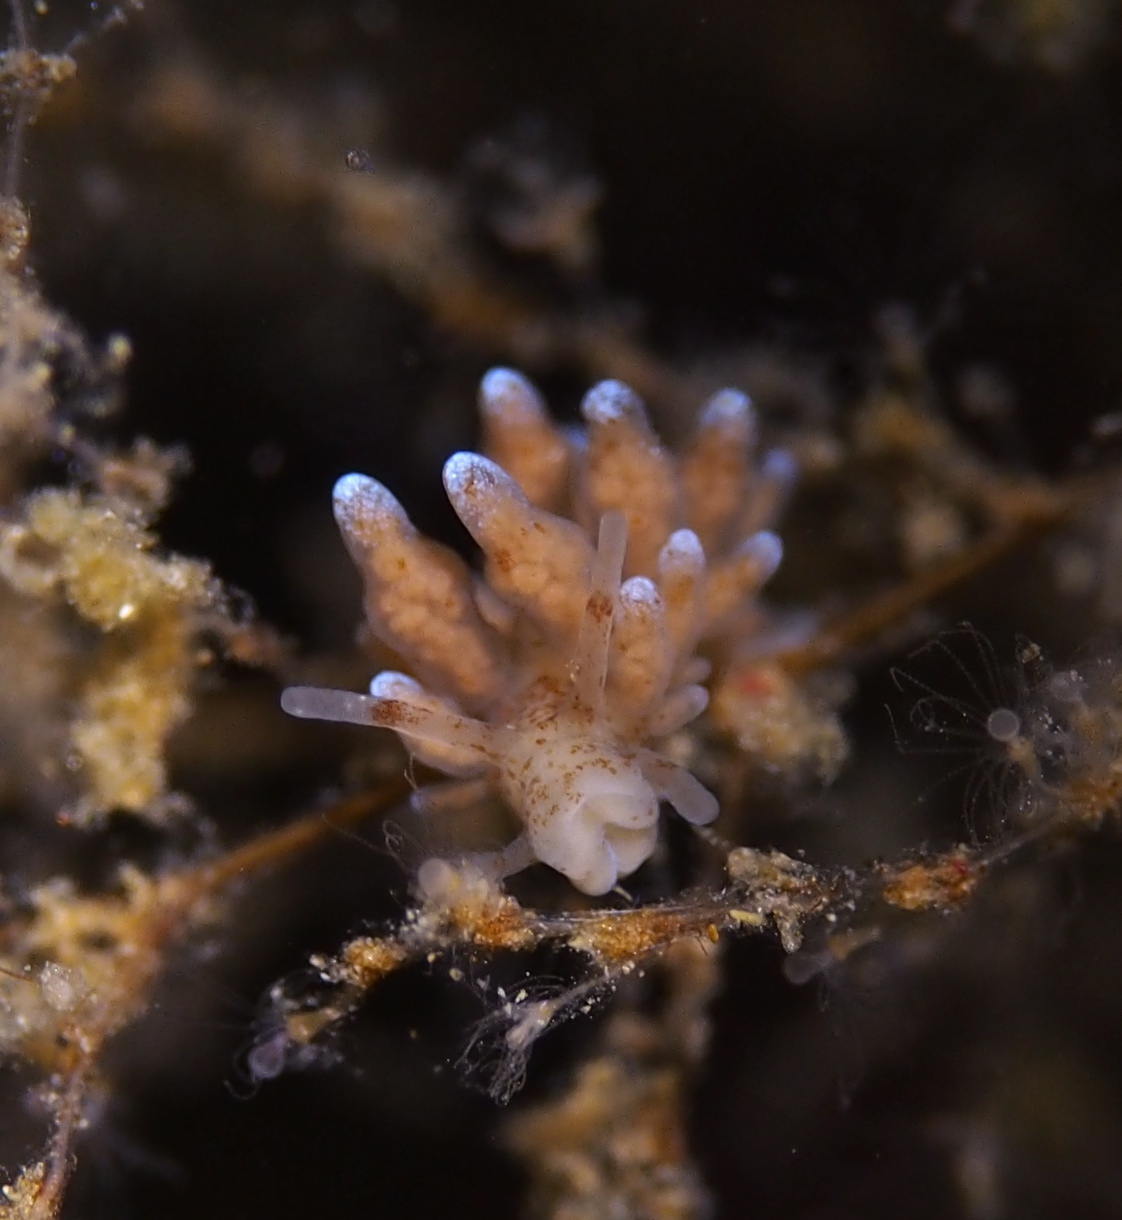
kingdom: Animalia
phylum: Mollusca
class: Gastropoda
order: Nudibranchia
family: Eubranchidae
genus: Eubranchus
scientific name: Eubranchus rupium
